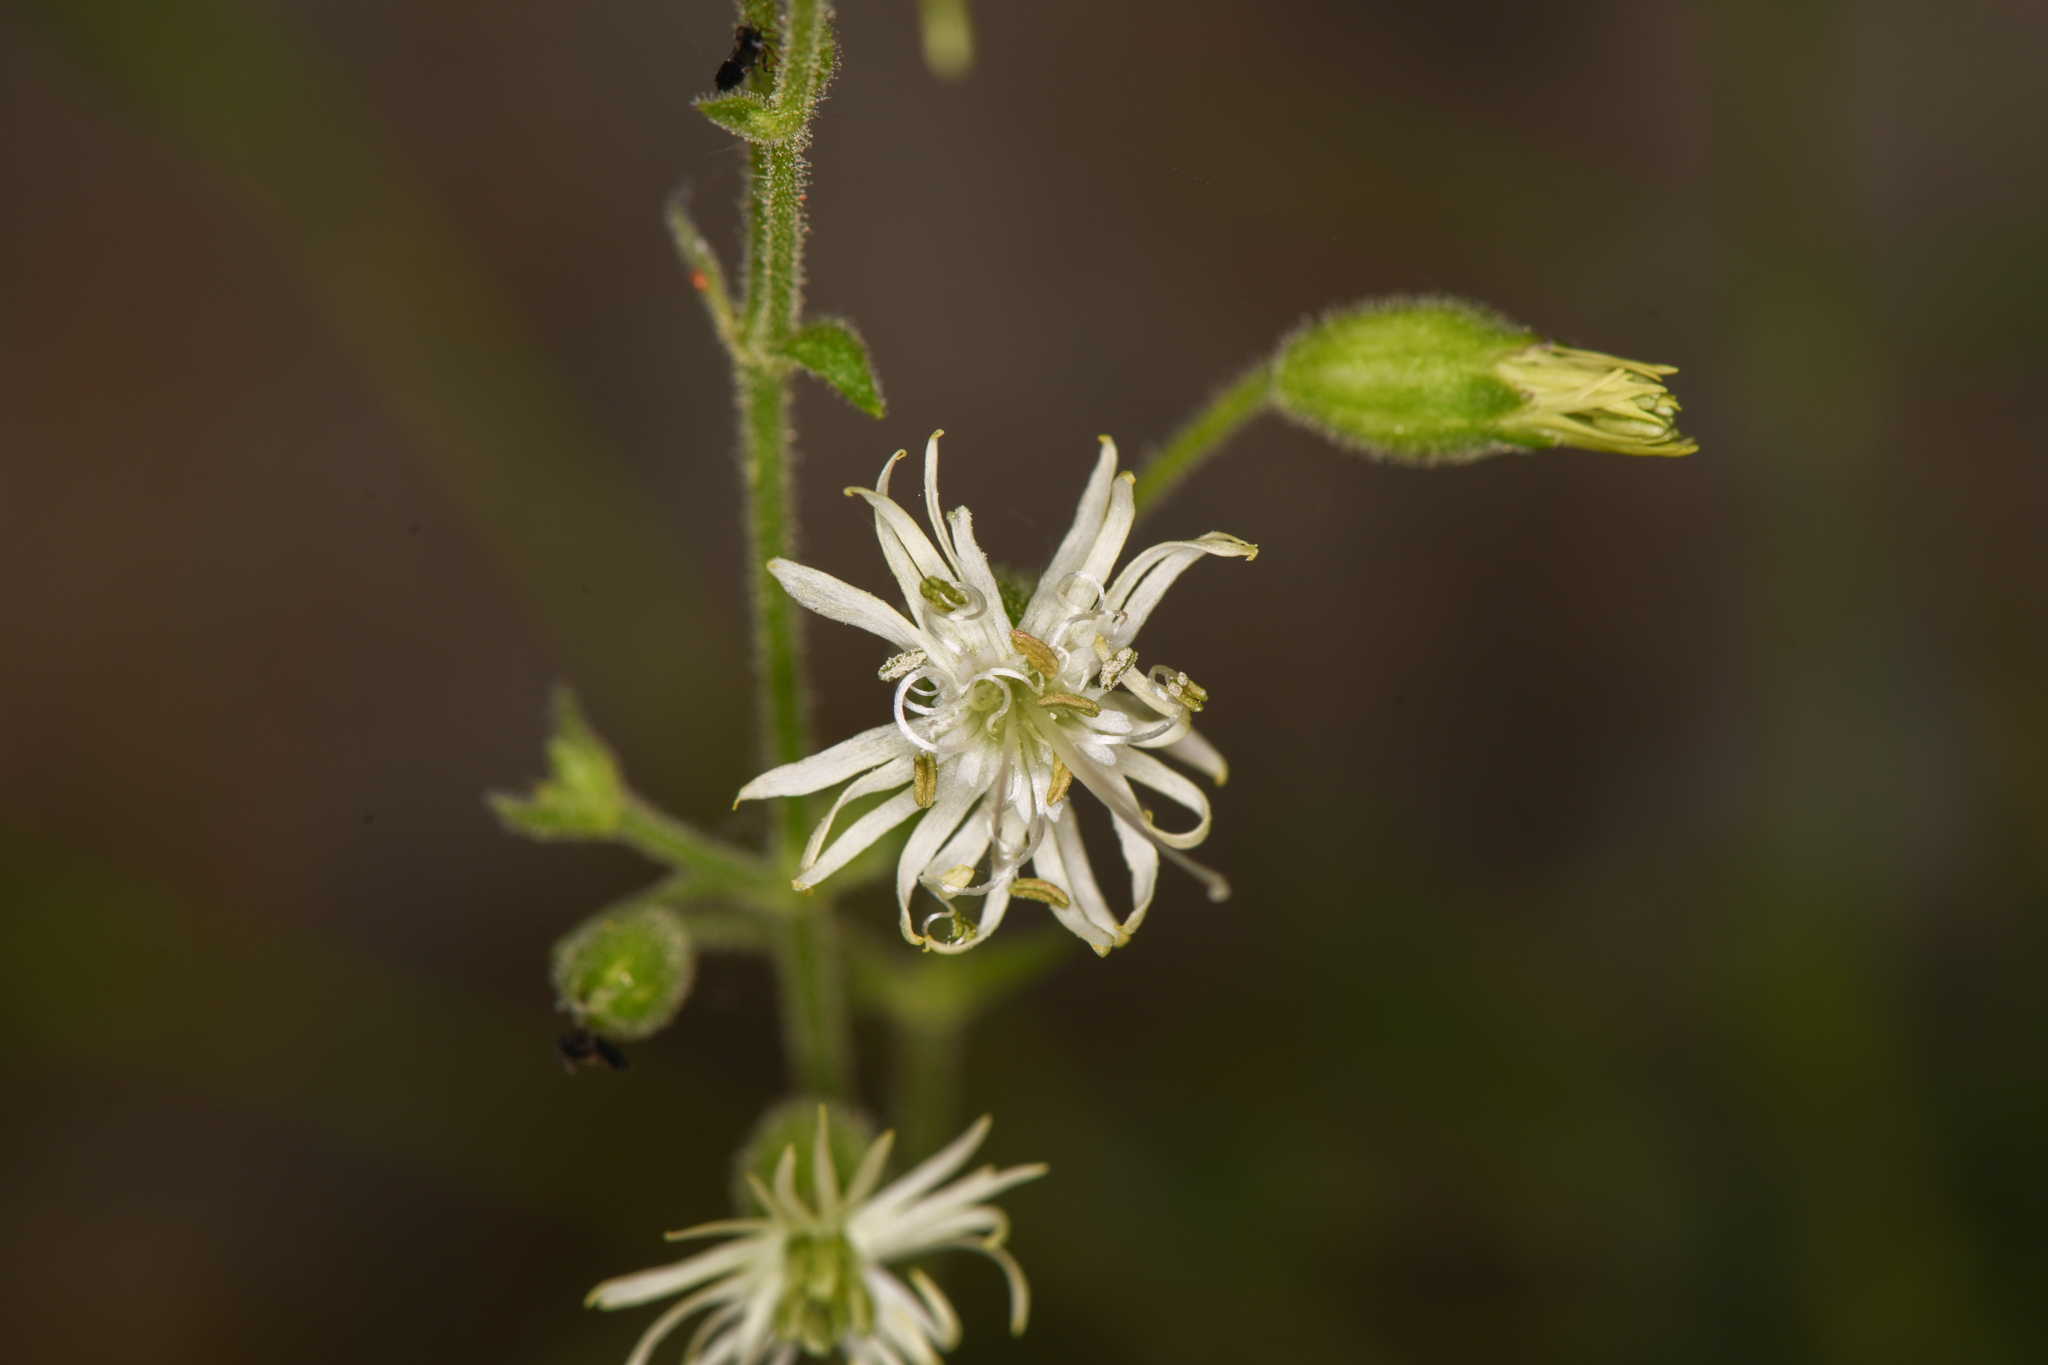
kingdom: Plantae
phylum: Tracheophyta
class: Magnoliopsida
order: Caryophyllales
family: Caryophyllaceae
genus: Silene
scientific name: Silene lemmonii
